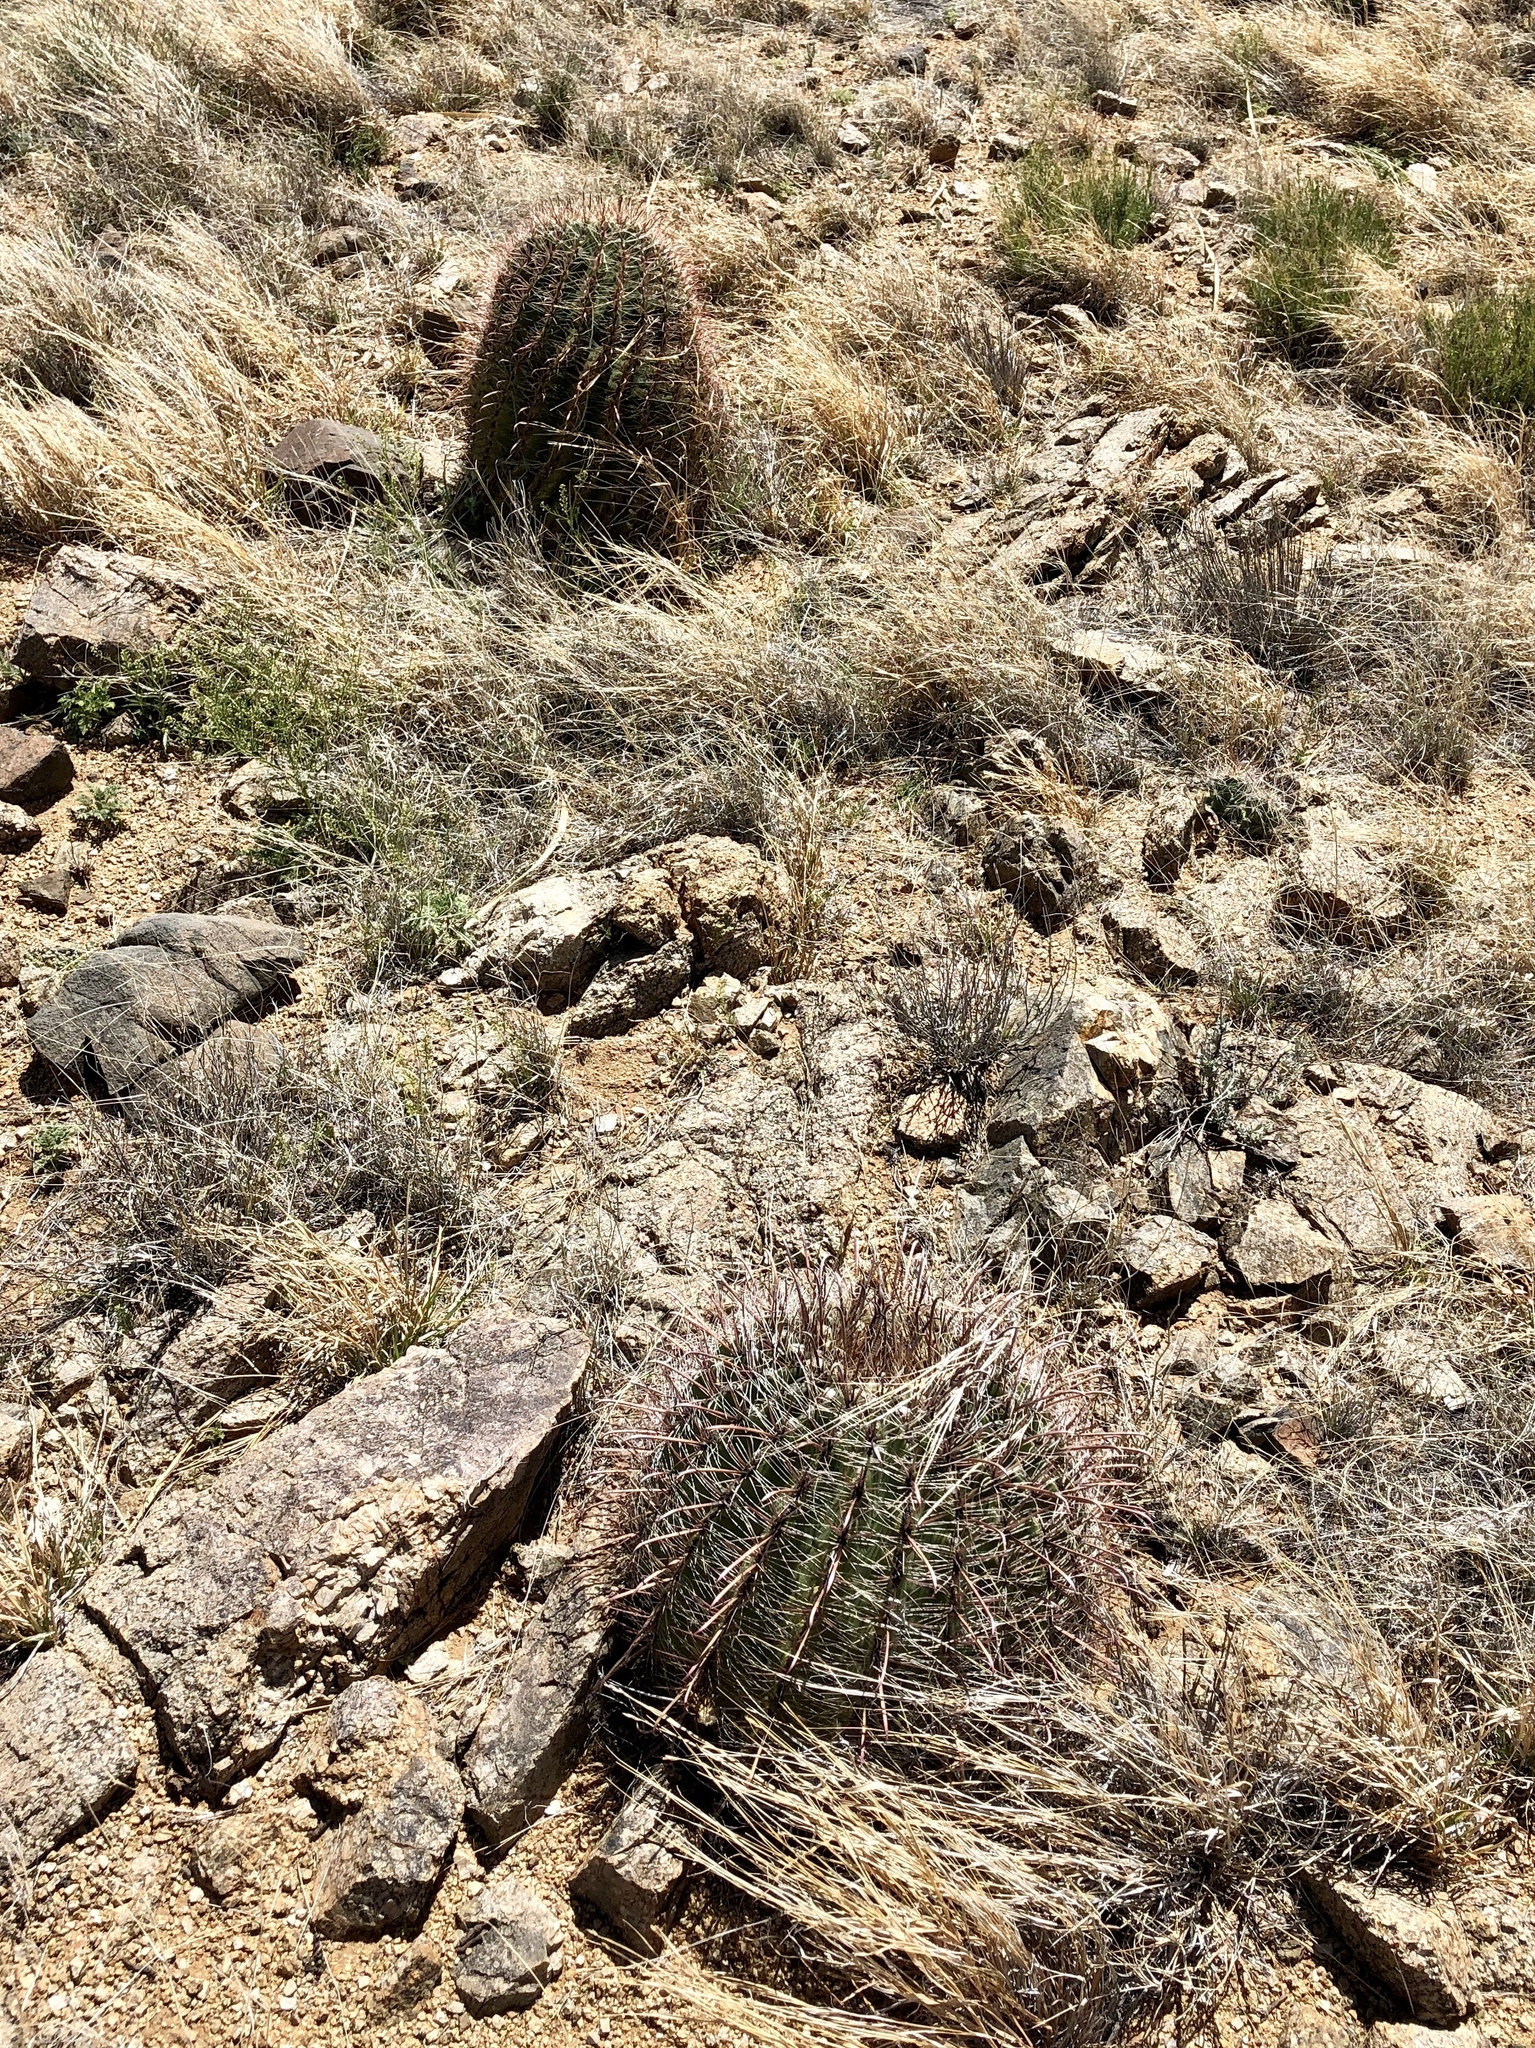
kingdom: Plantae
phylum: Tracheophyta
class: Magnoliopsida
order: Caryophyllales
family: Cactaceae
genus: Ferocactus
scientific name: Ferocactus wislizeni
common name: Candy barrel cactus
